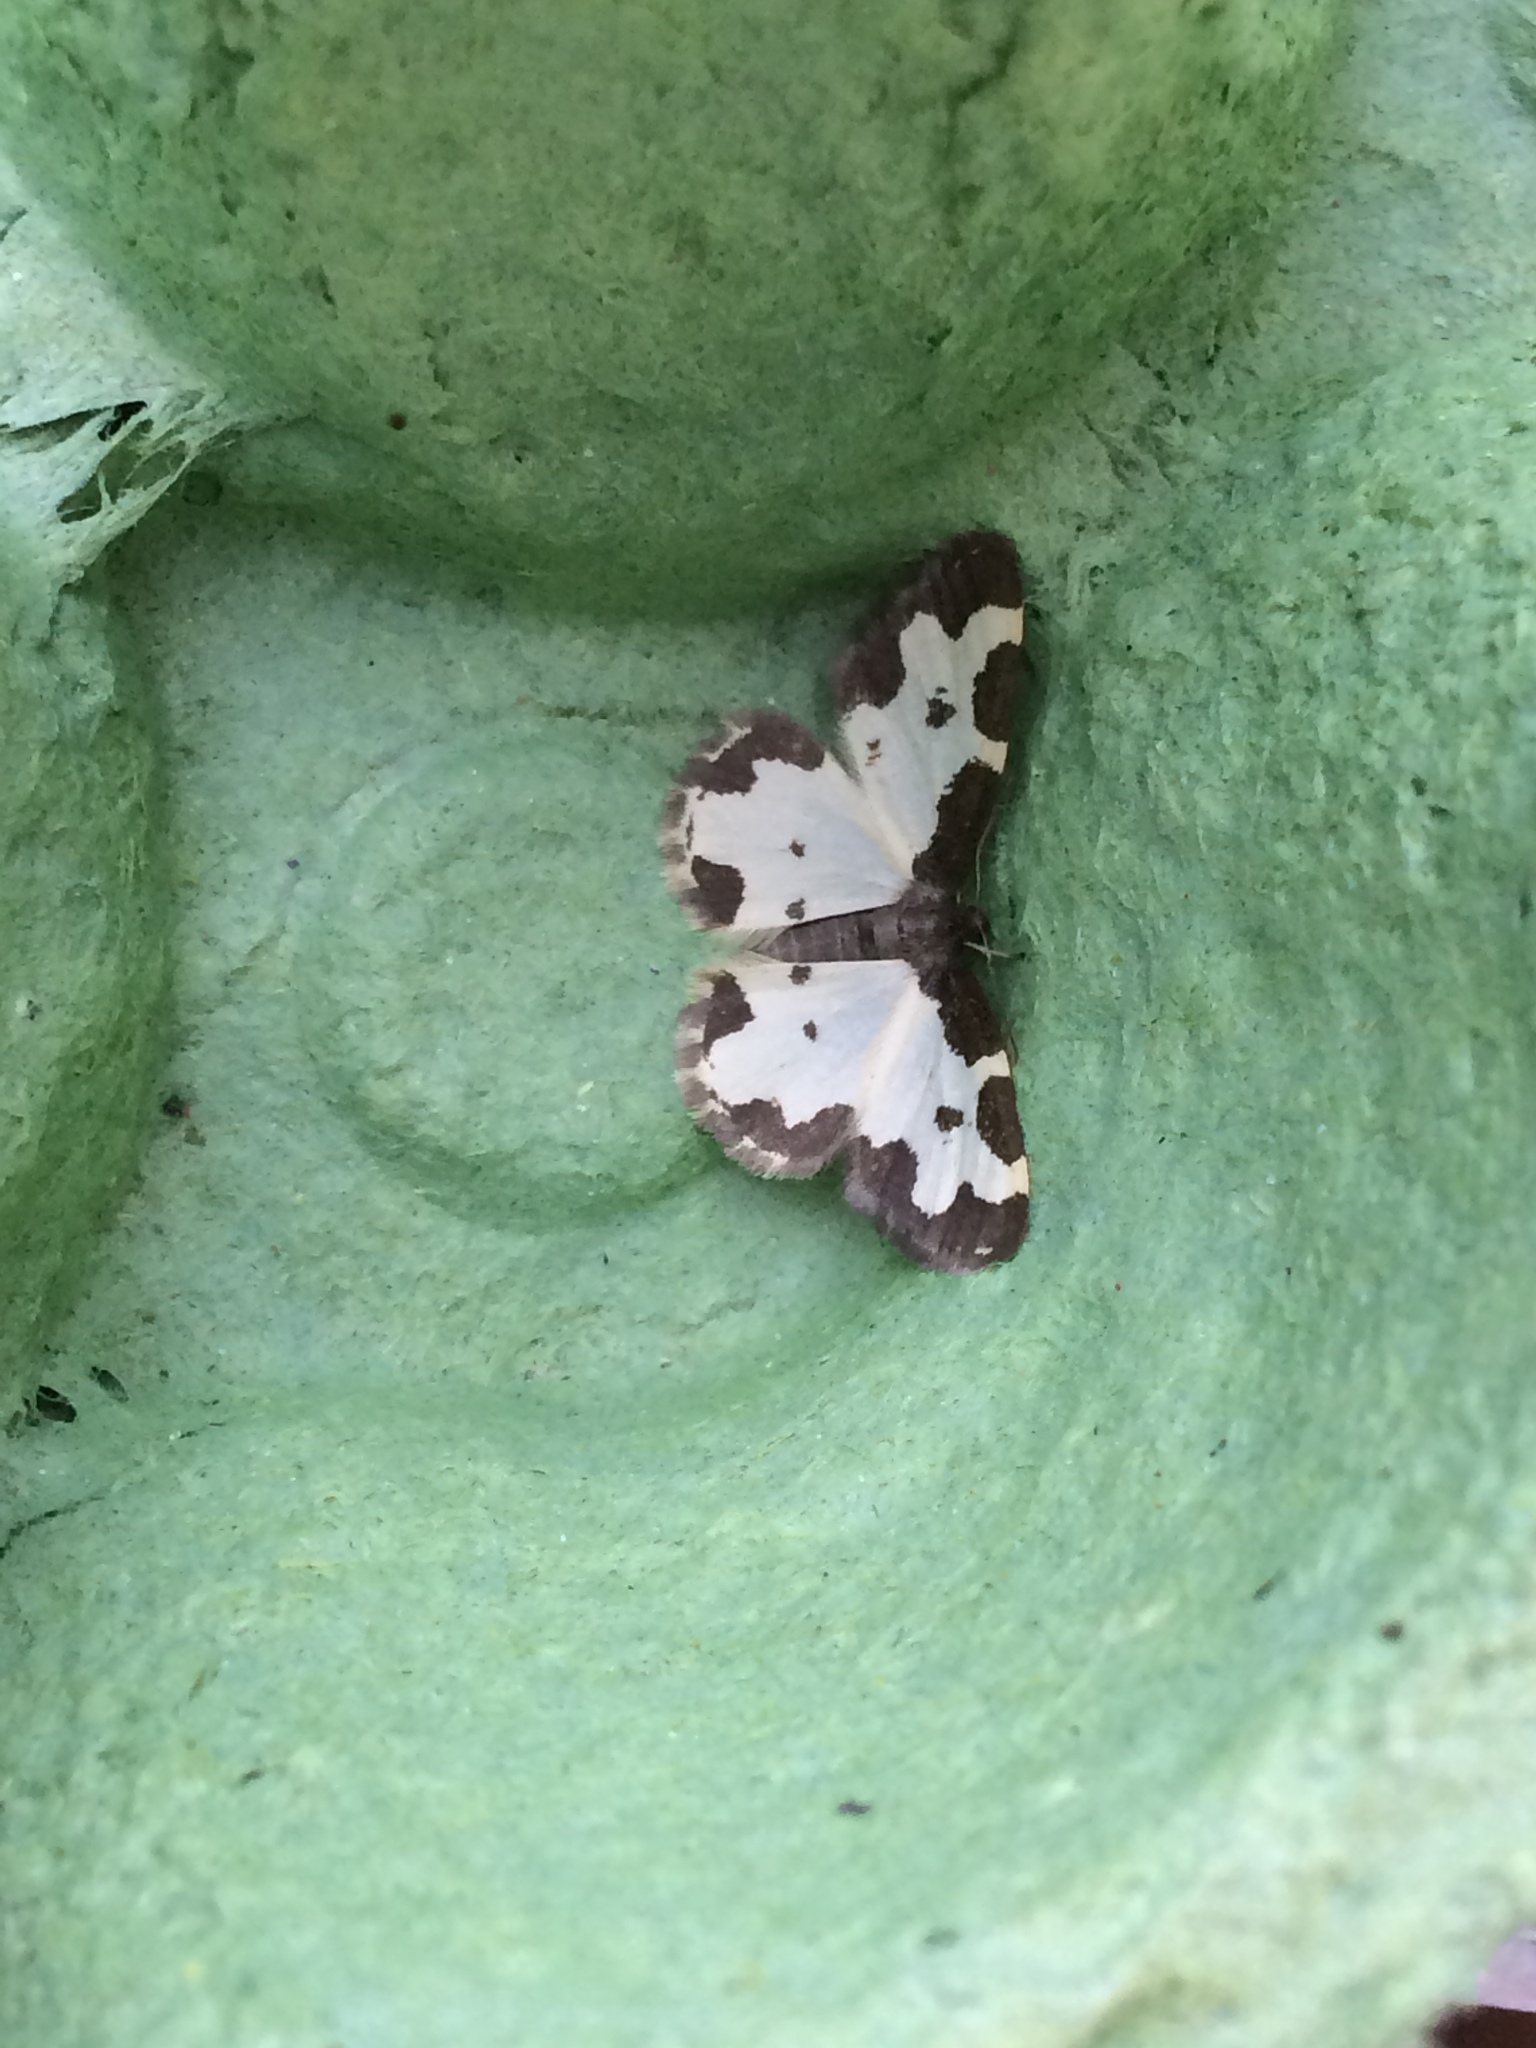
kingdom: Animalia
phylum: Arthropoda
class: Insecta
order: Lepidoptera
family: Geometridae
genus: Lomaspilis
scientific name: Lomaspilis marginata
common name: Clouded border
